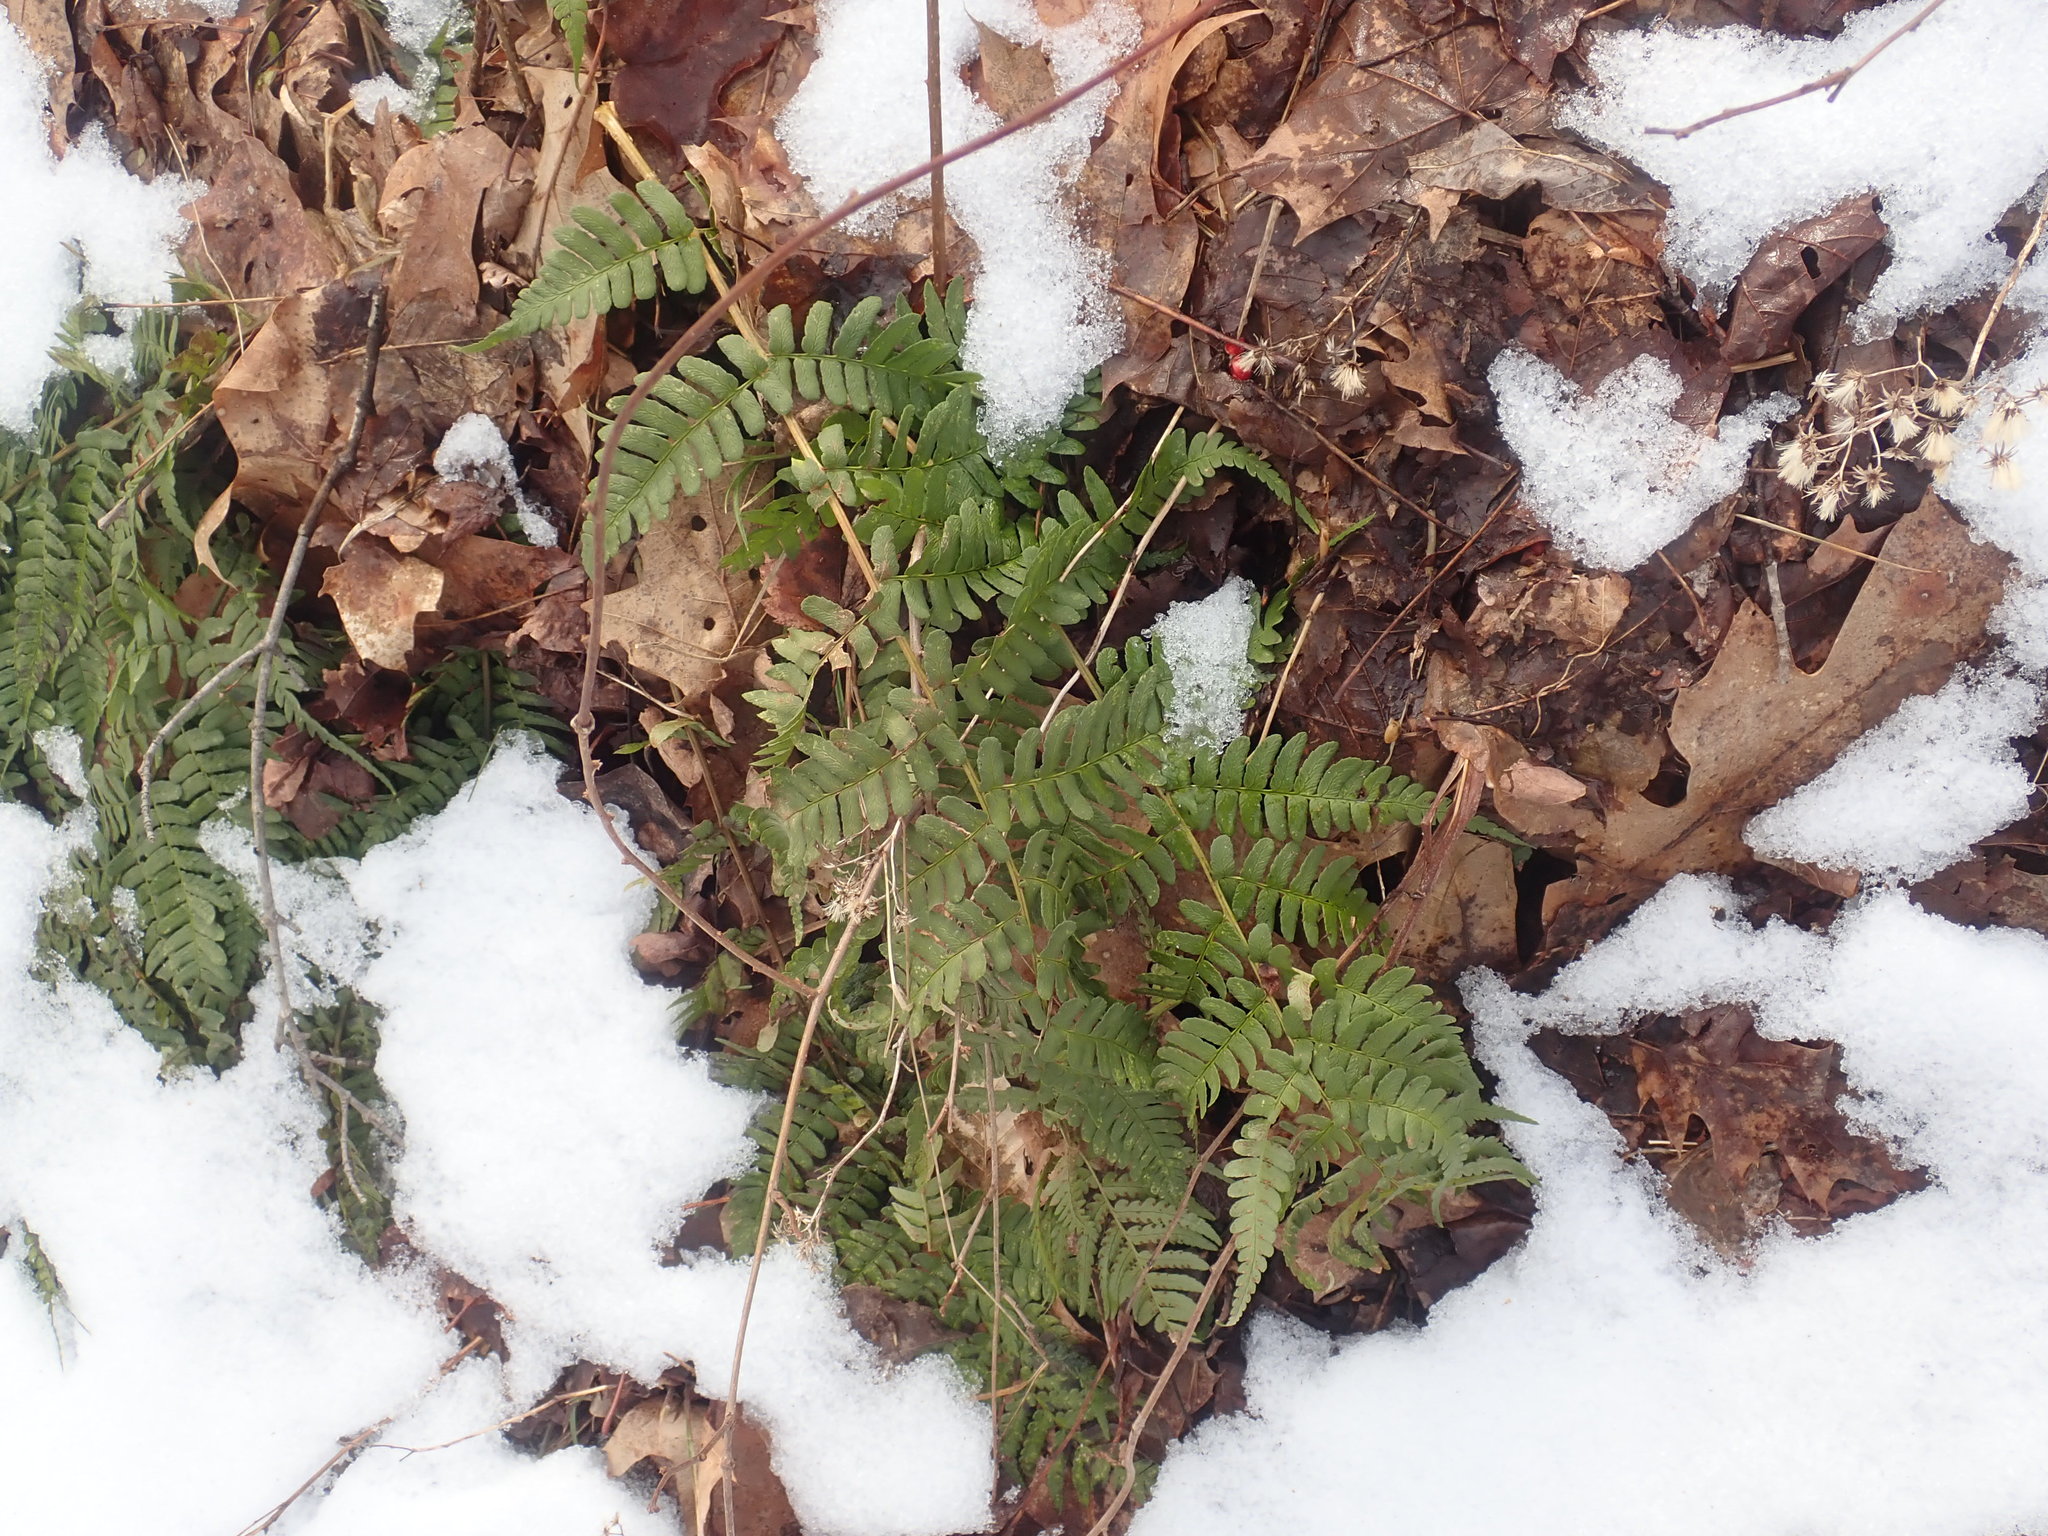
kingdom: Plantae
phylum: Tracheophyta
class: Polypodiopsida
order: Polypodiales
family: Dryopteridaceae
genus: Dryopteris
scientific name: Dryopteris marginalis
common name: Marginal wood fern
